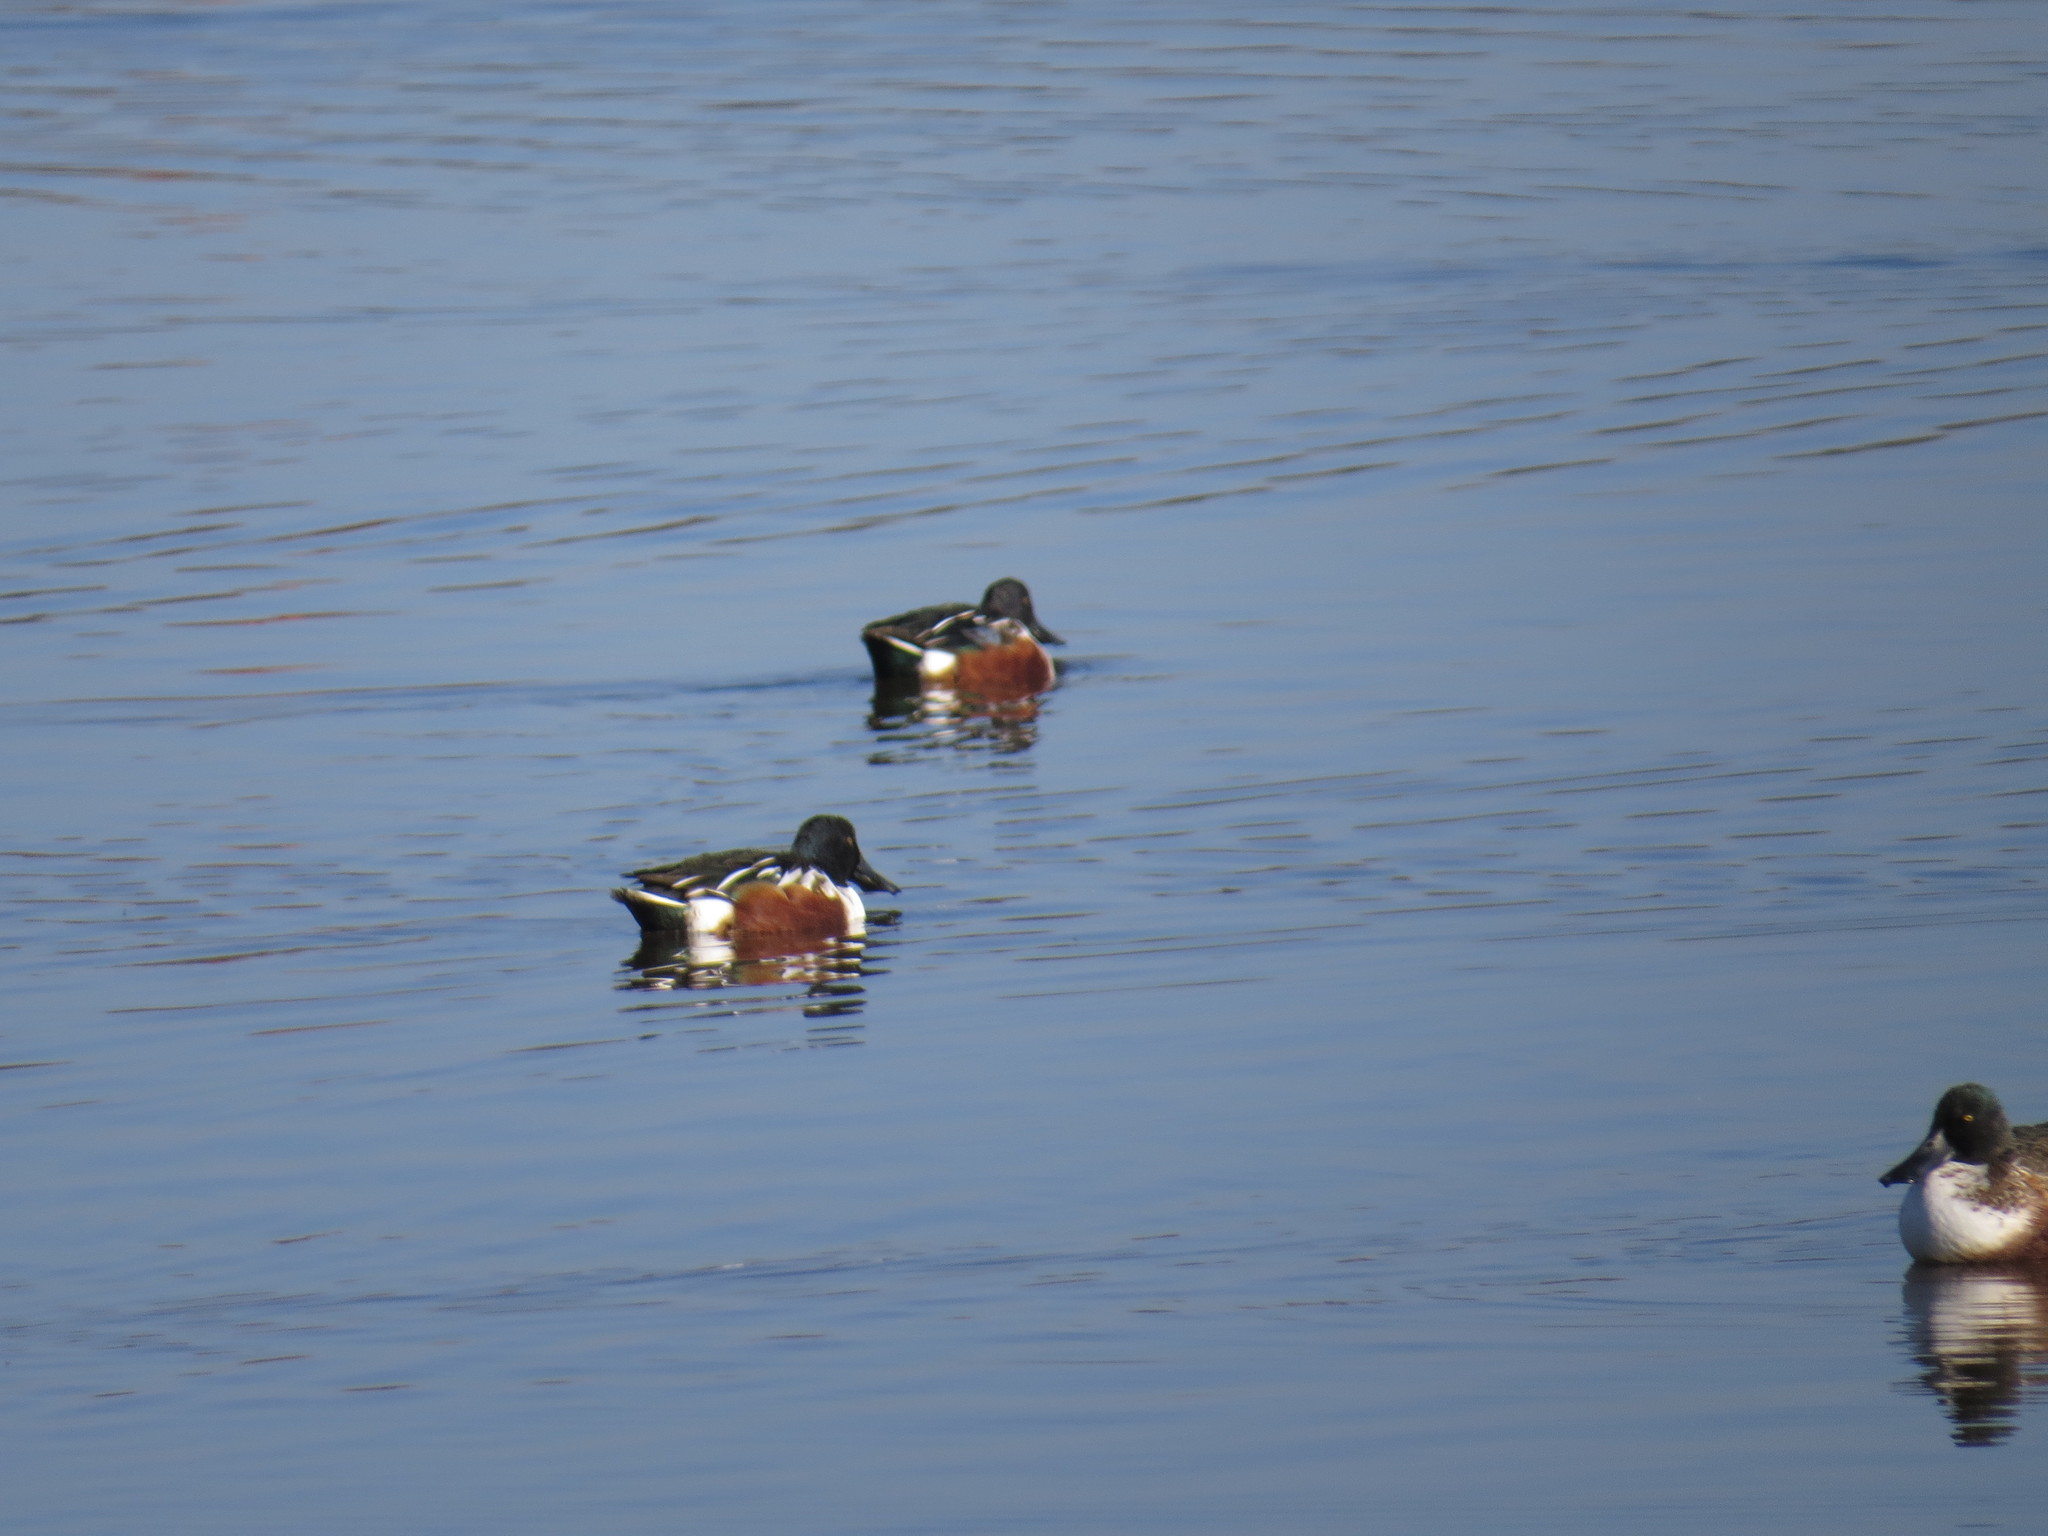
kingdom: Animalia
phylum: Chordata
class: Aves
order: Anseriformes
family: Anatidae
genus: Spatula
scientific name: Spatula clypeata
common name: Northern shoveler
